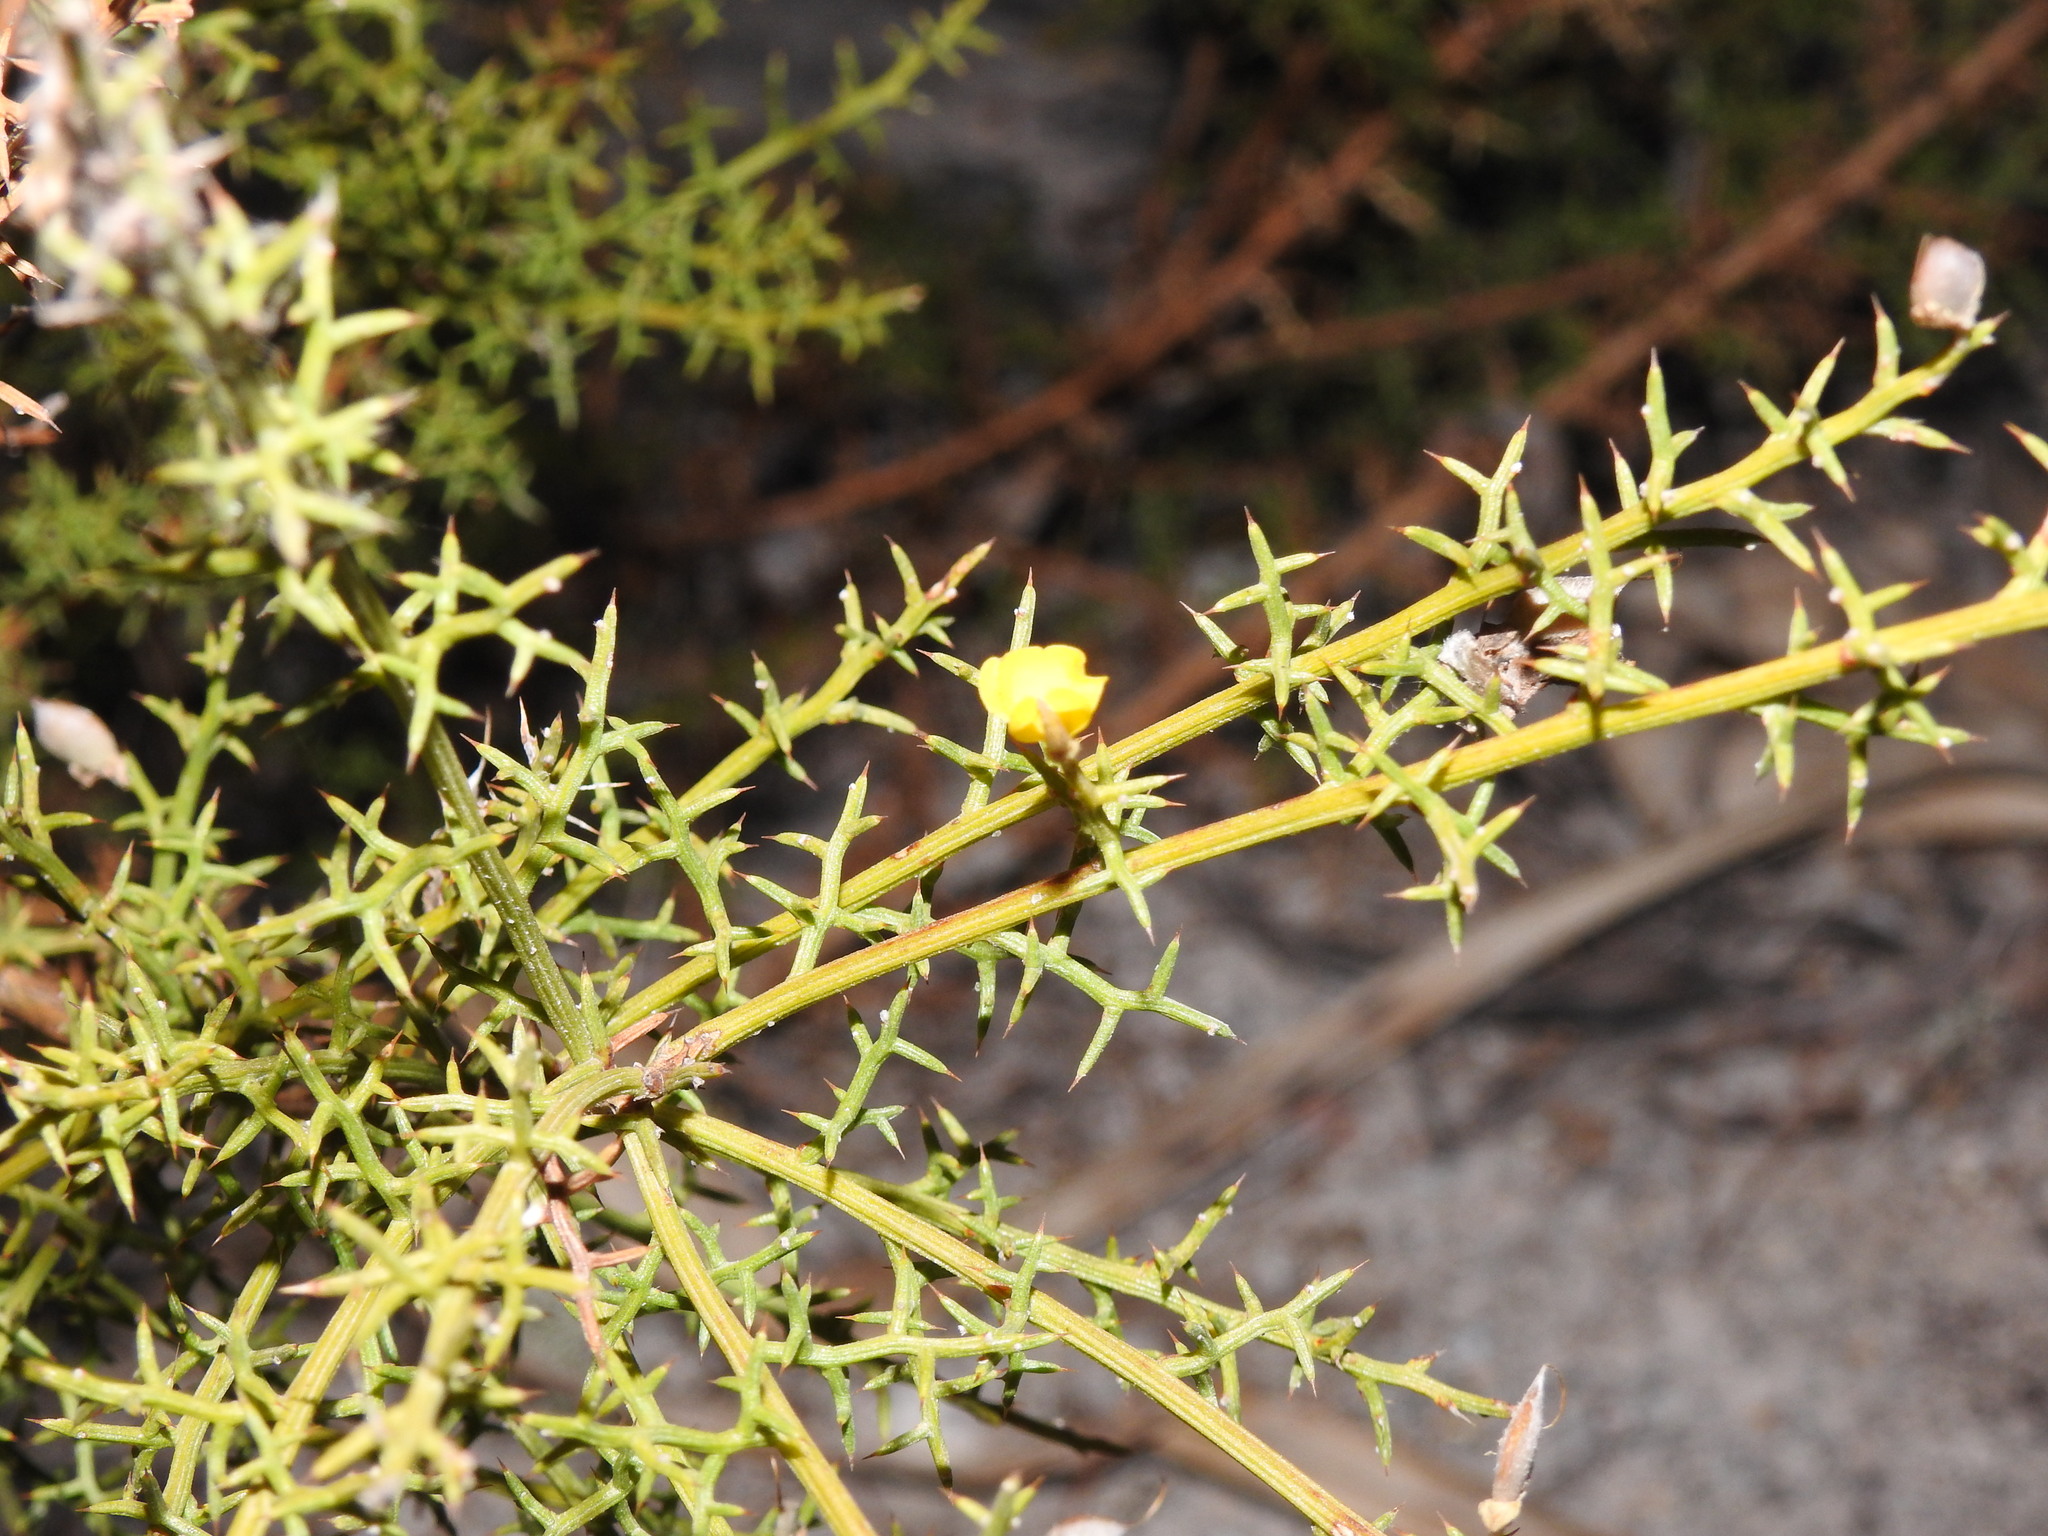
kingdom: Plantae
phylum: Tracheophyta
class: Magnoliopsida
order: Fabales
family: Fabaceae
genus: Stauracanthus
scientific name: Stauracanthus boivinii
